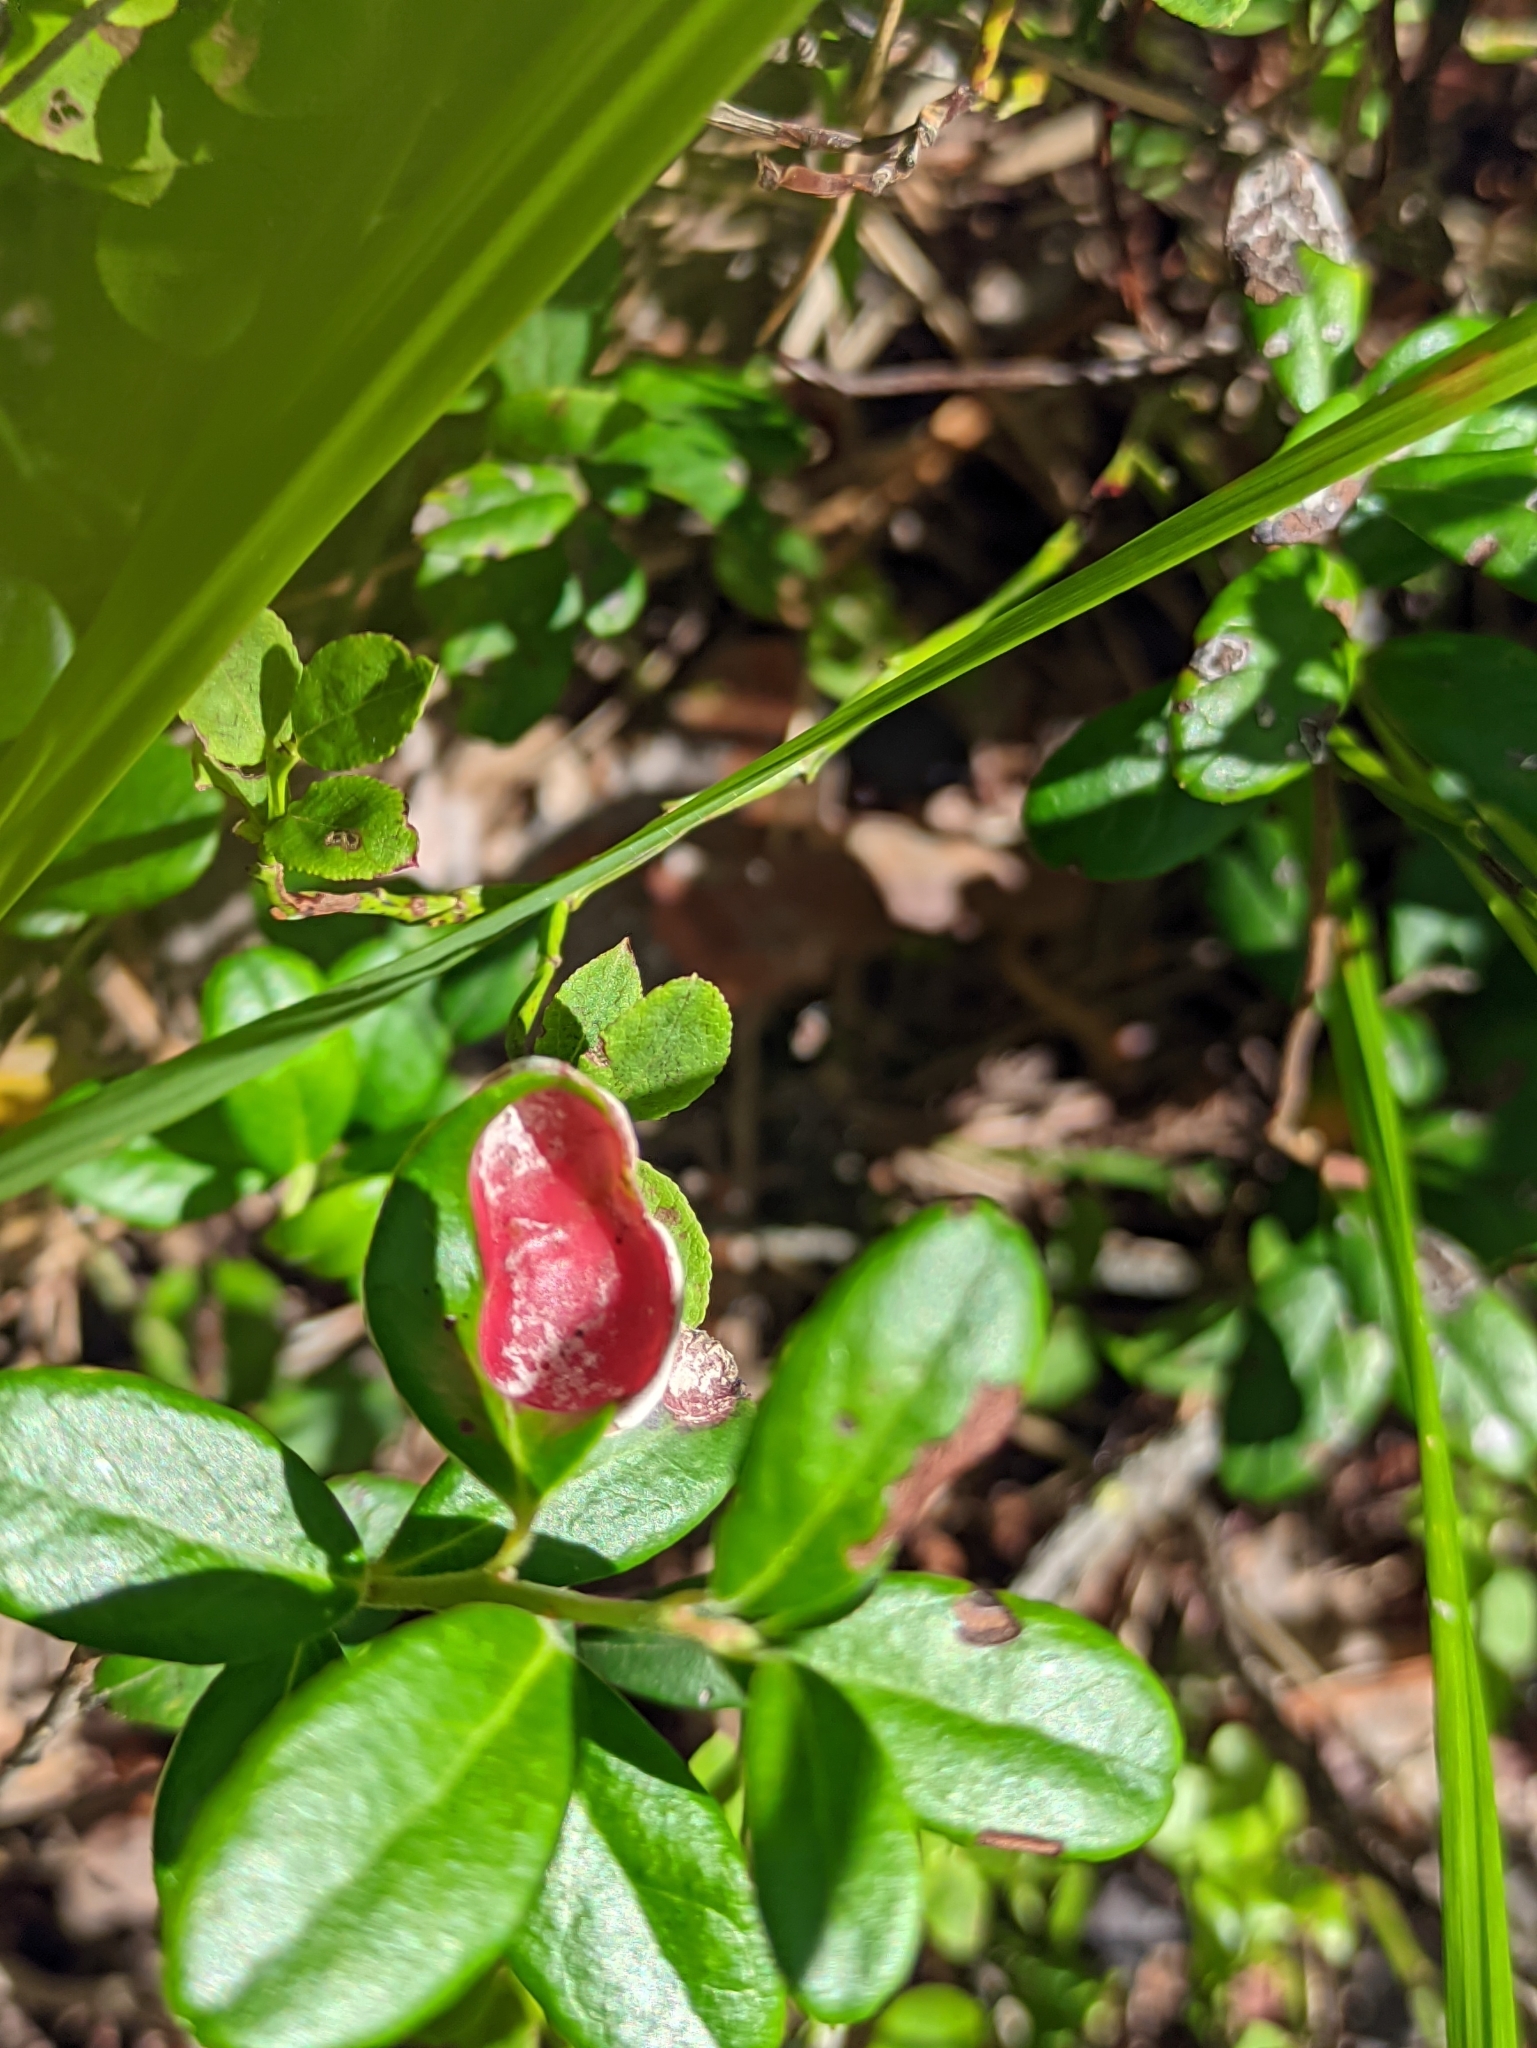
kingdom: Fungi
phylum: Basidiomycota
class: Exobasidiomycetes
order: Exobasidiales
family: Exobasidiaceae
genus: Exobasidium
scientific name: Exobasidium vaccinii
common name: Cowberry redleaf
